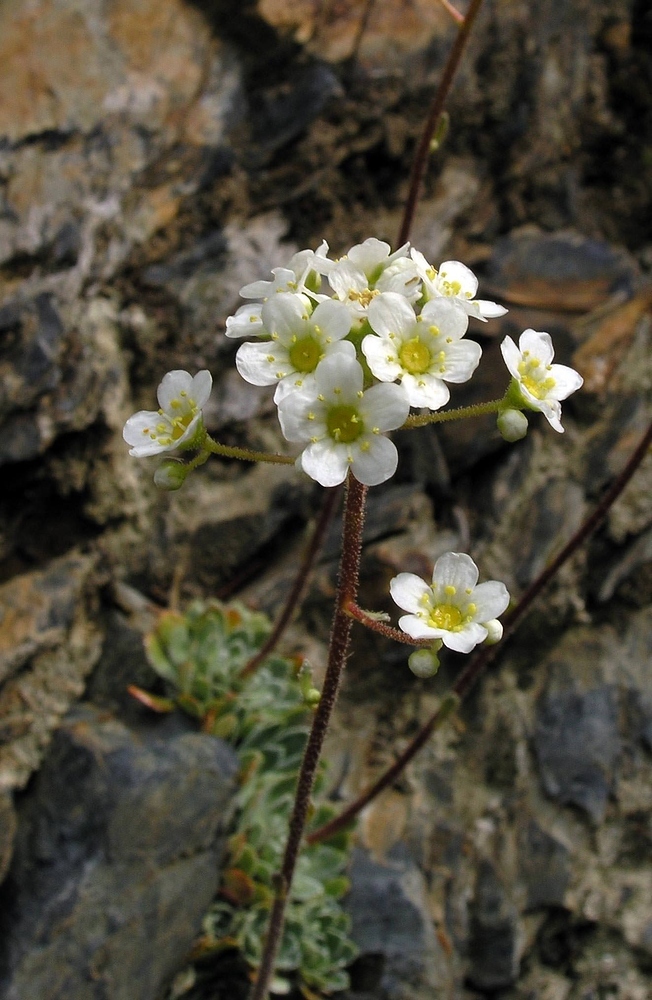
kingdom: Plantae
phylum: Tracheophyta
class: Magnoliopsida
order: Saxifragales
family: Saxifragaceae
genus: Saxifraga
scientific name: Saxifraga paniculata
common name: Livelong saxifrage
